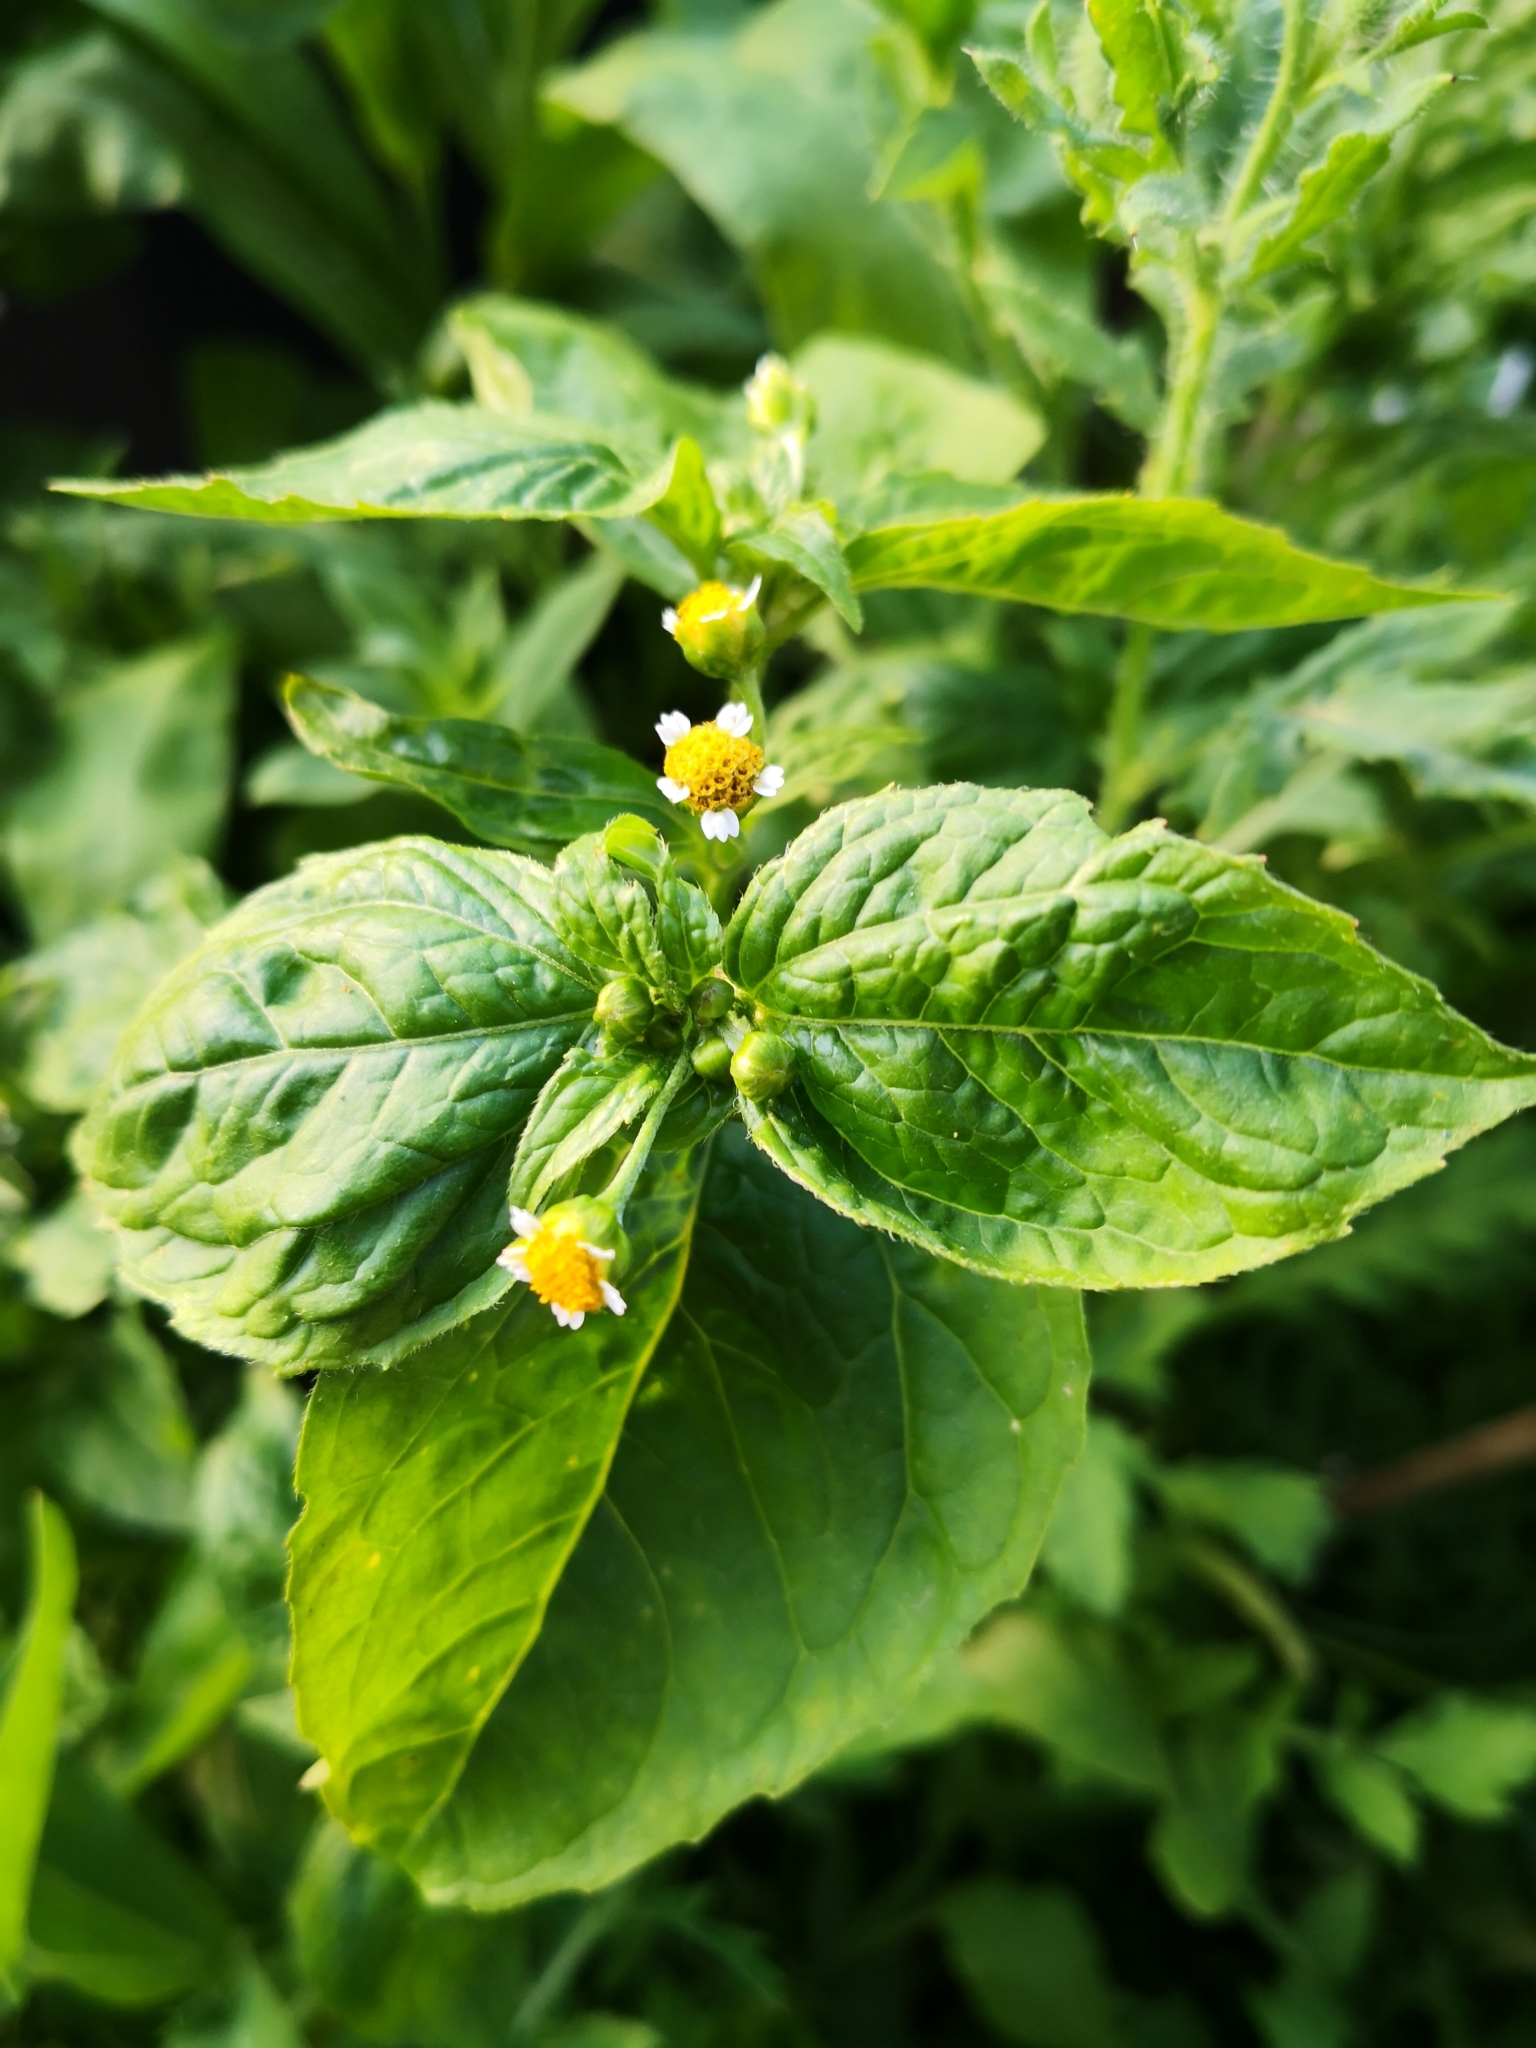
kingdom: Plantae
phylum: Tracheophyta
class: Magnoliopsida
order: Asterales
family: Asteraceae
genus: Galinsoga
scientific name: Galinsoga parviflora
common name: Gallant soldier
